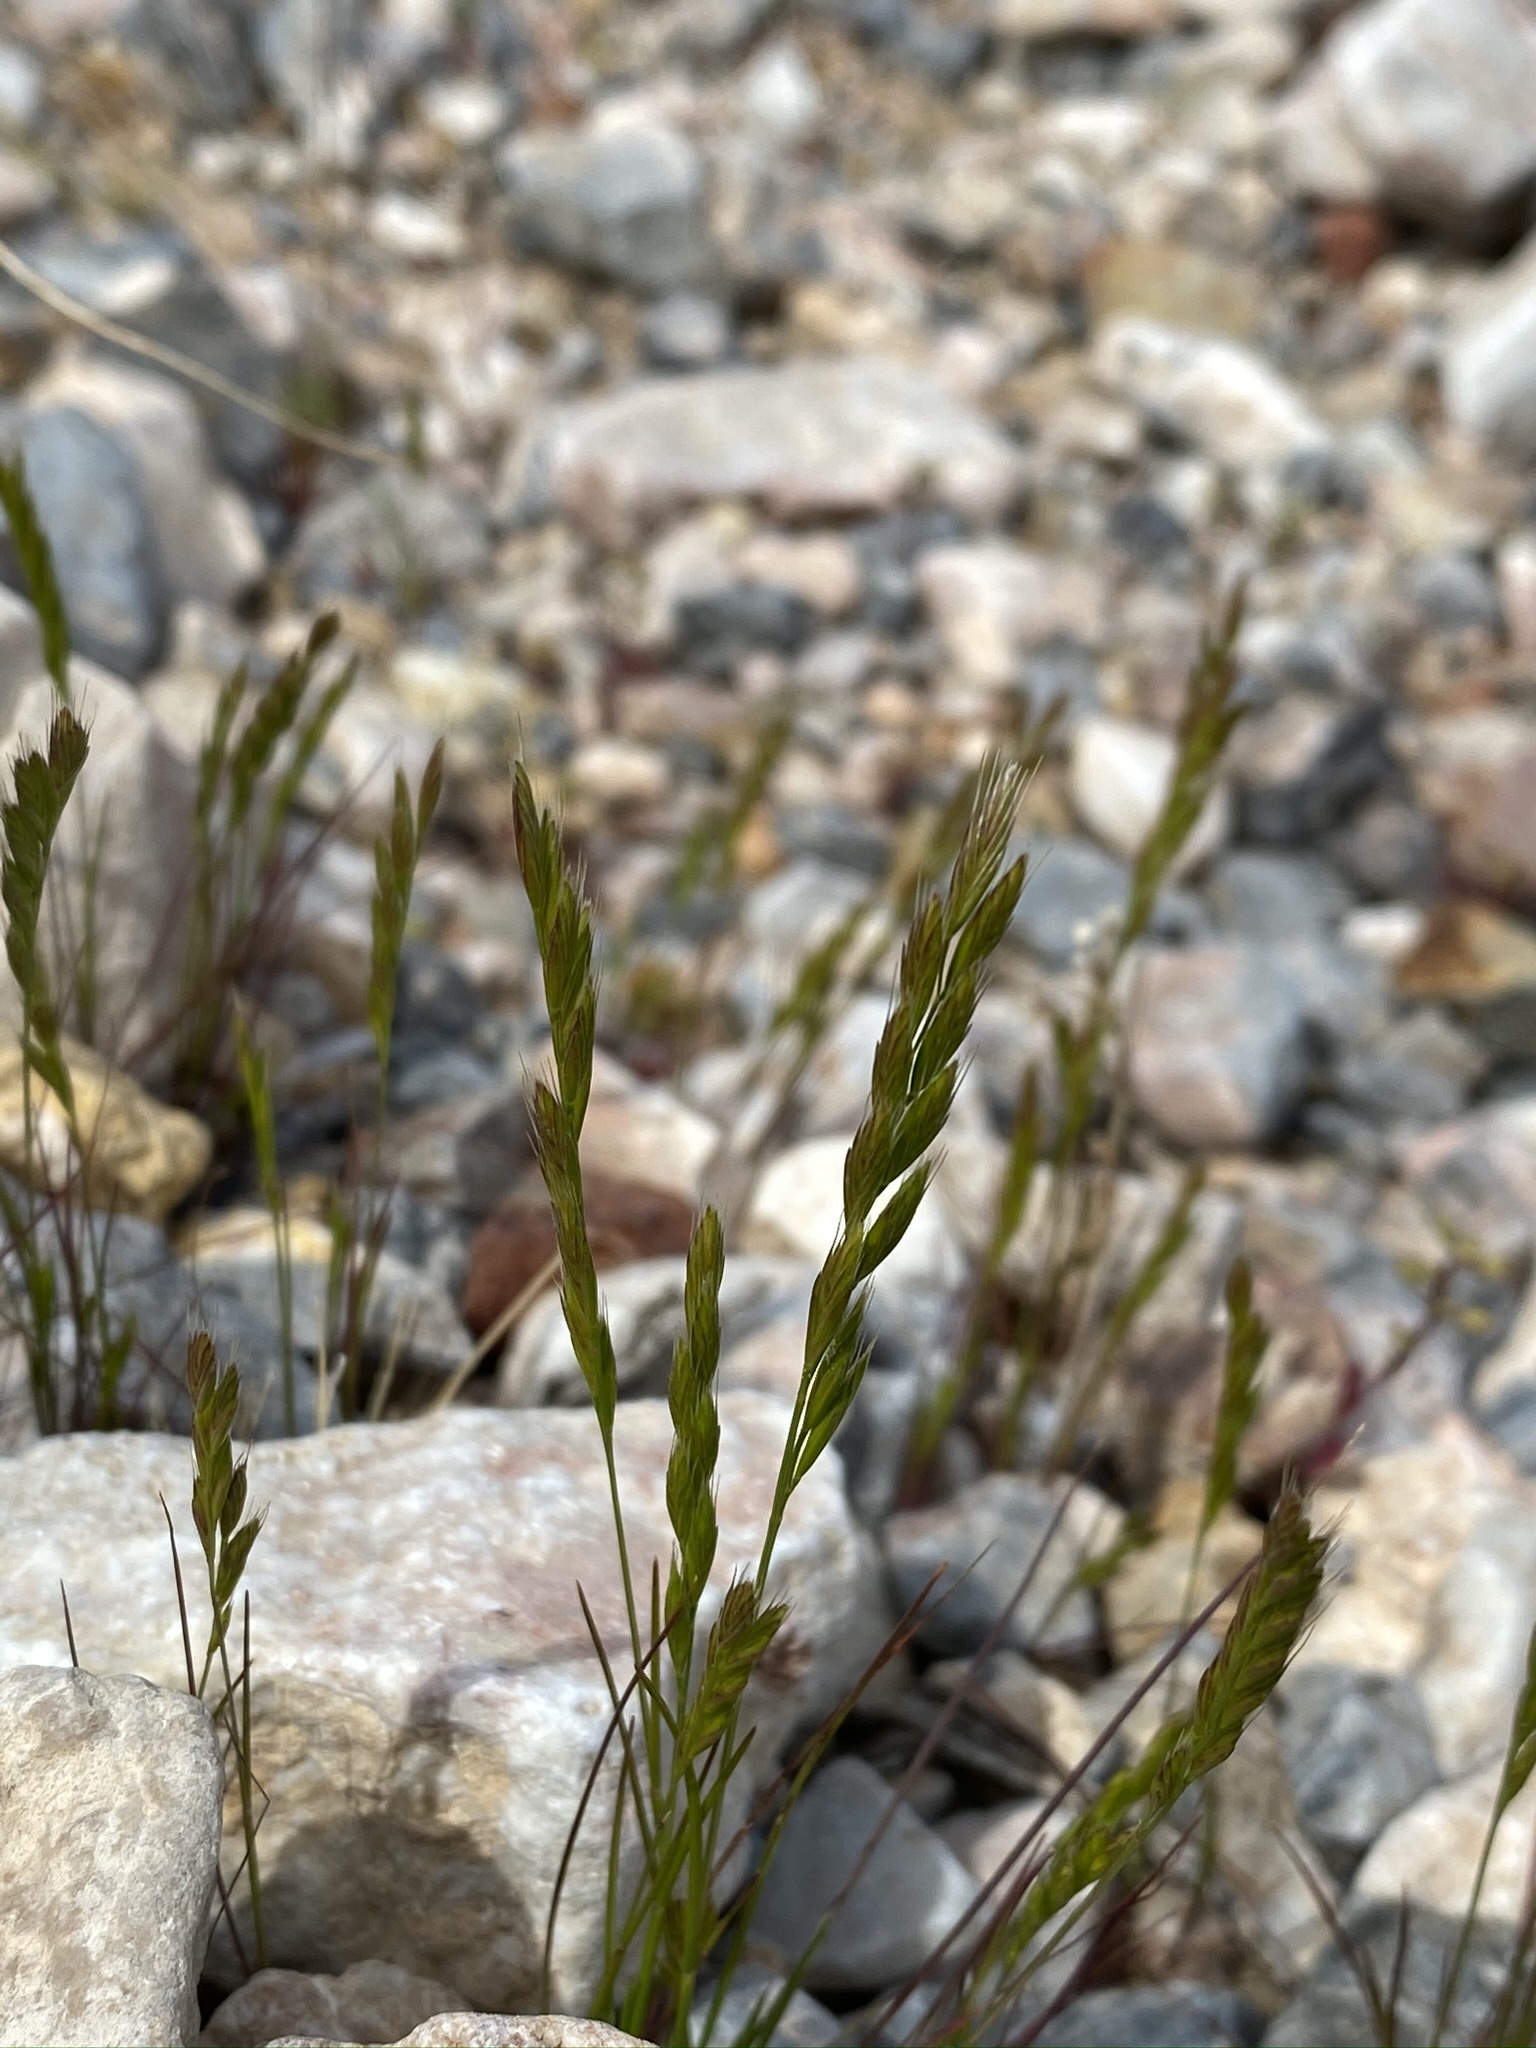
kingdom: Plantae
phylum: Tracheophyta
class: Liliopsida
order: Poales
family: Poaceae
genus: Festuca
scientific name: Festuca octoflora
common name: Sixweeks grass
